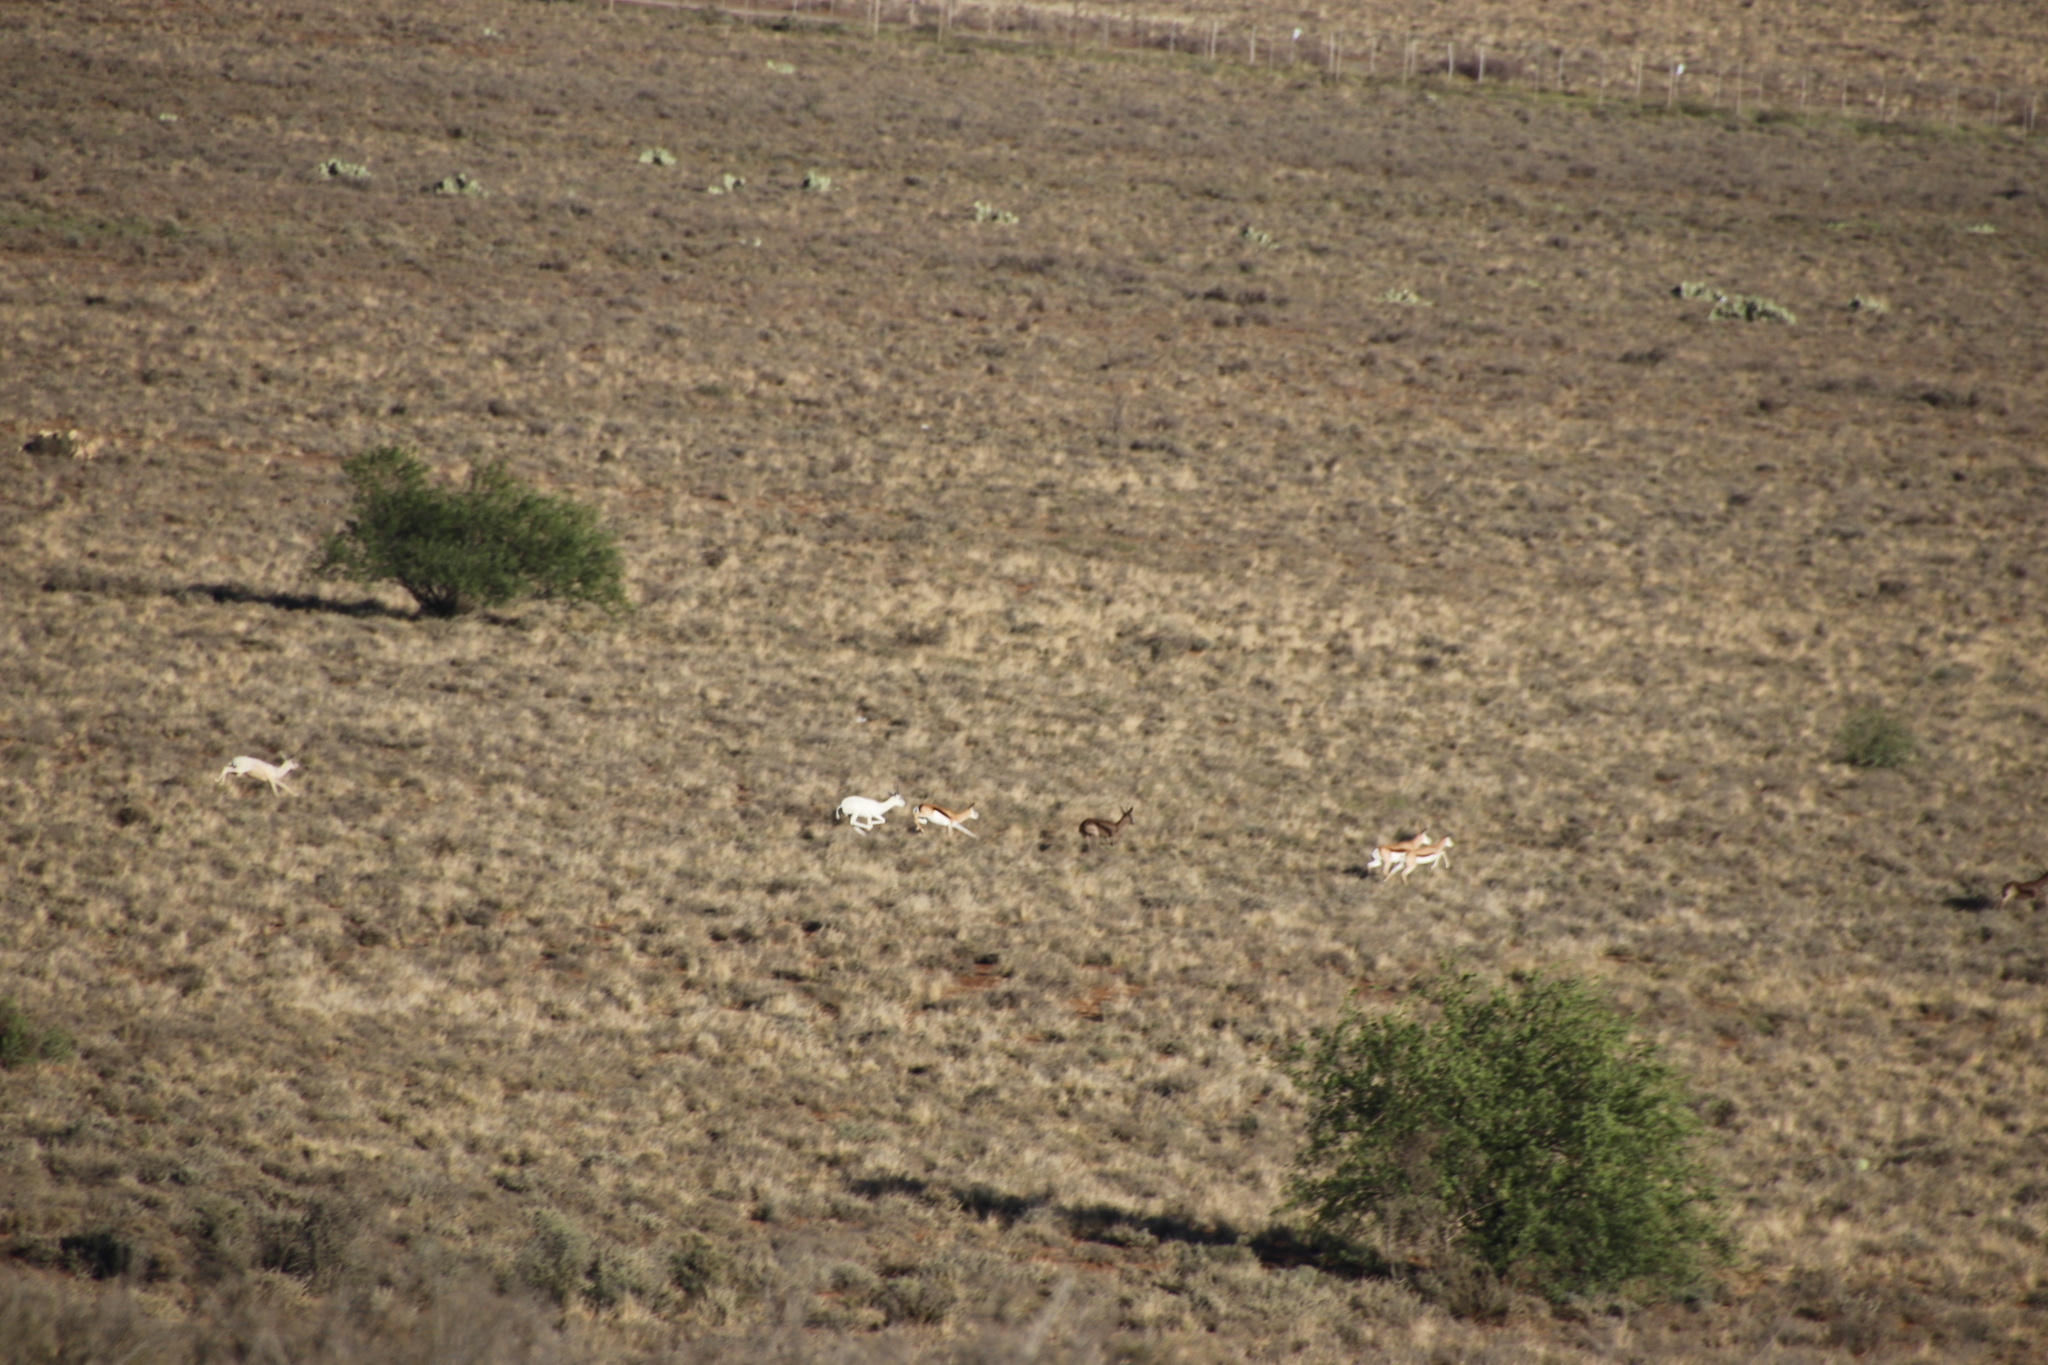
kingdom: Animalia
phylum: Chordata
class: Mammalia
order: Artiodactyla
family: Bovidae
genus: Antidorcas
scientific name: Antidorcas marsupialis
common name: Springbok
